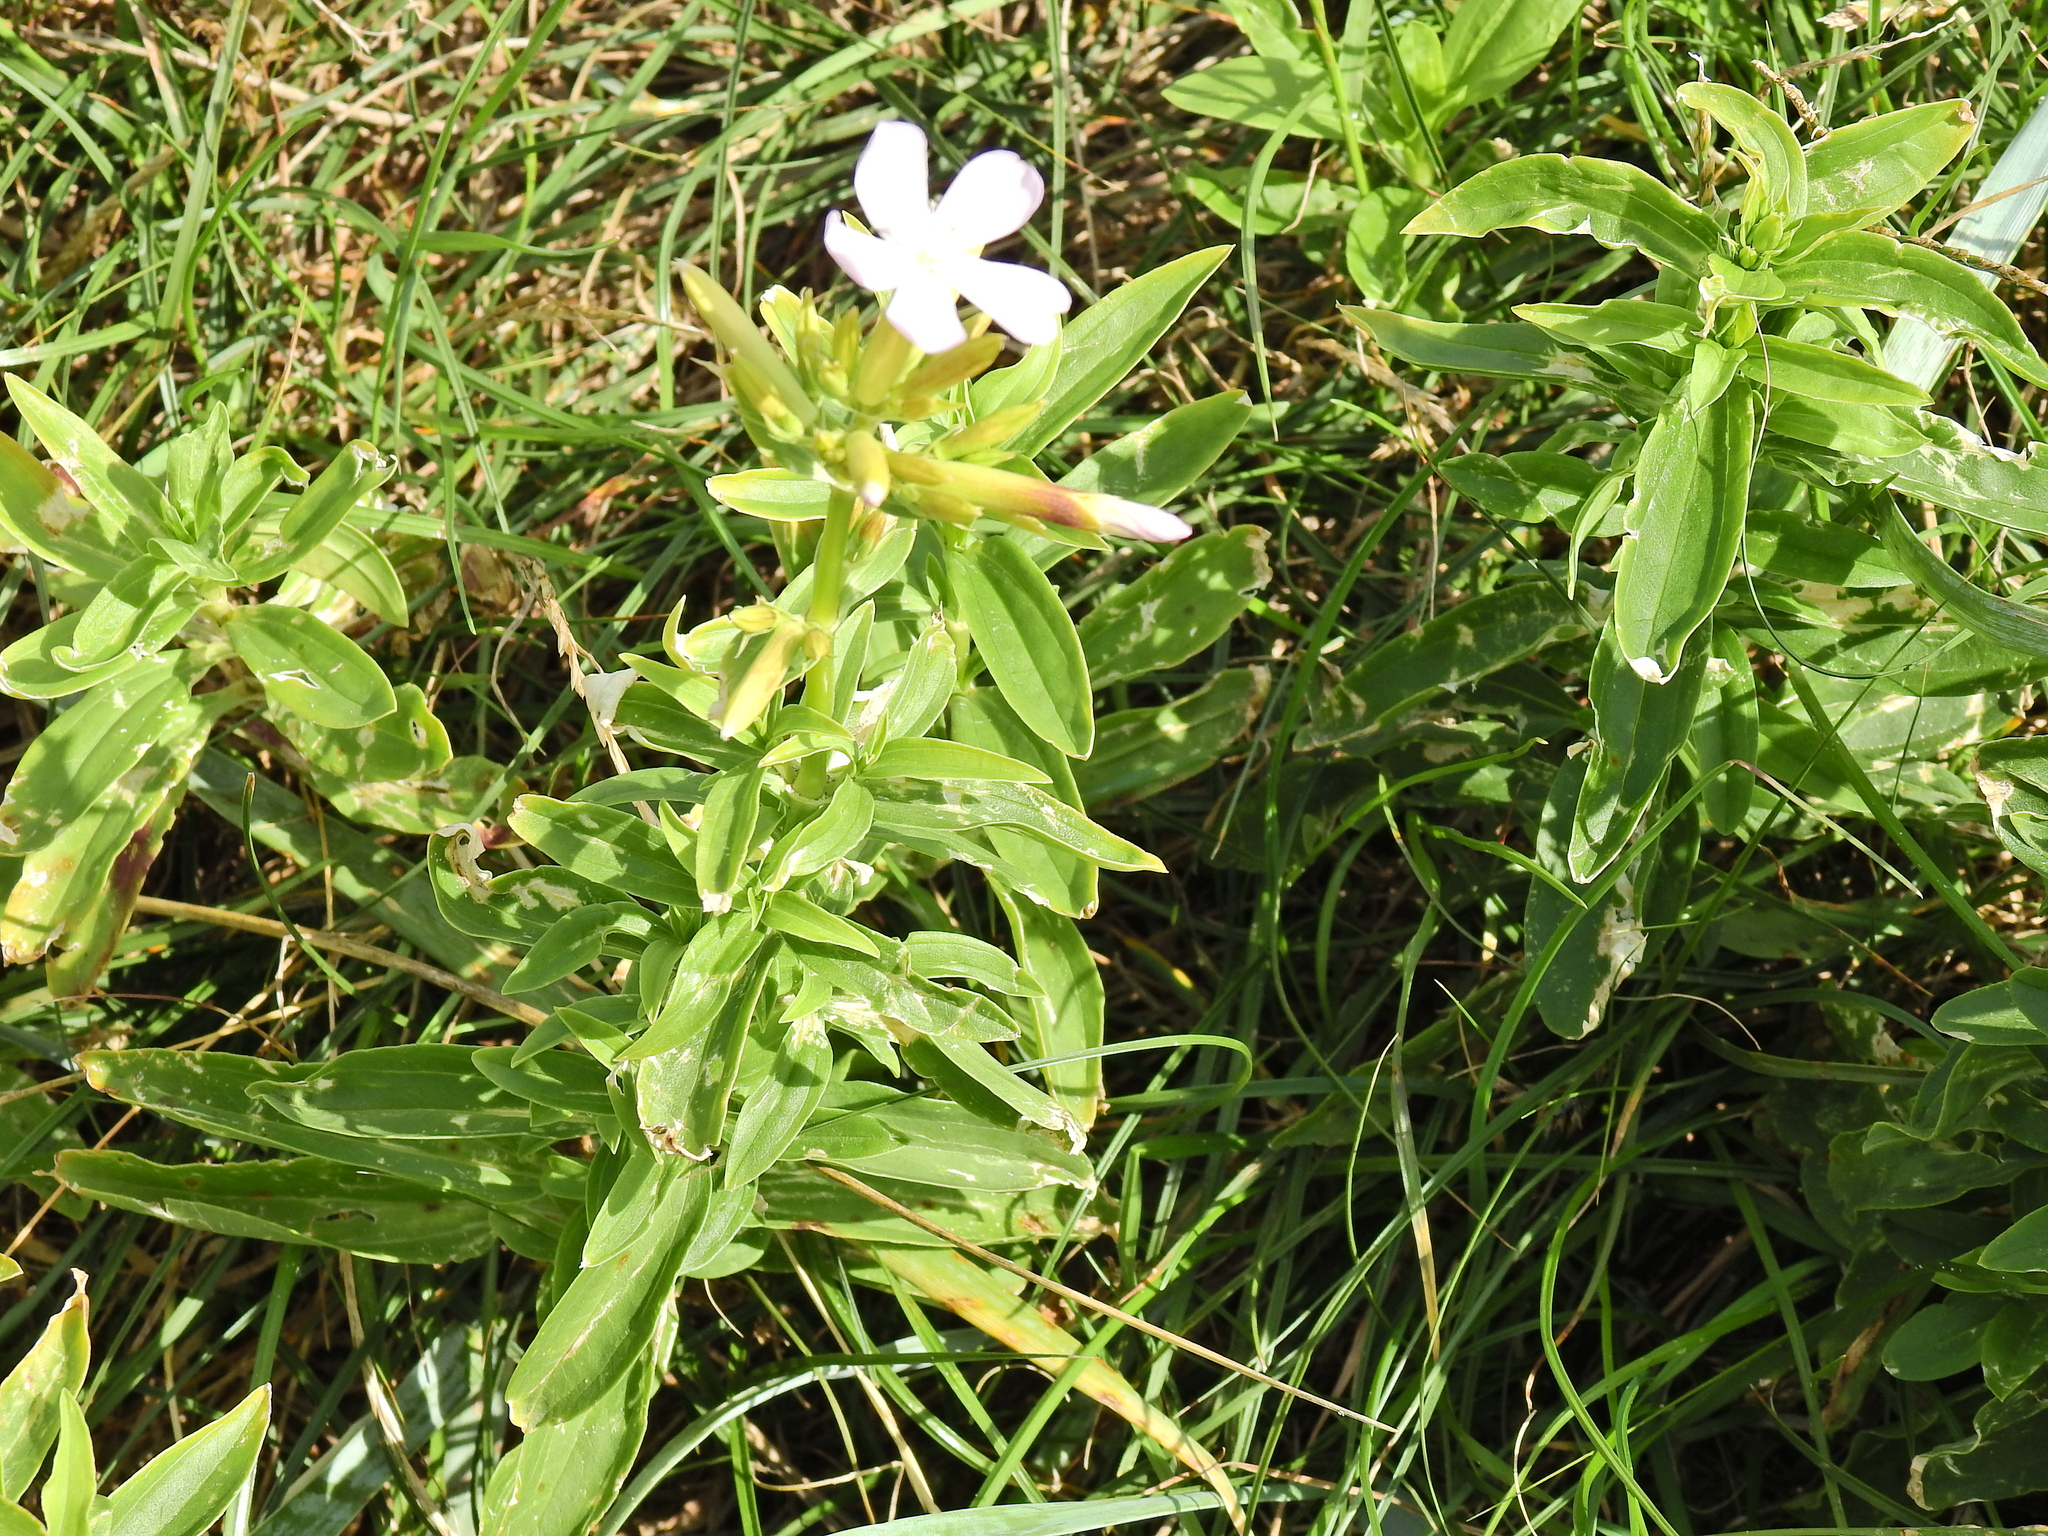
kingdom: Plantae
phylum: Tracheophyta
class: Magnoliopsida
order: Caryophyllales
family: Caryophyllaceae
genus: Saponaria
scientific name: Saponaria officinalis
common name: Soapwort
